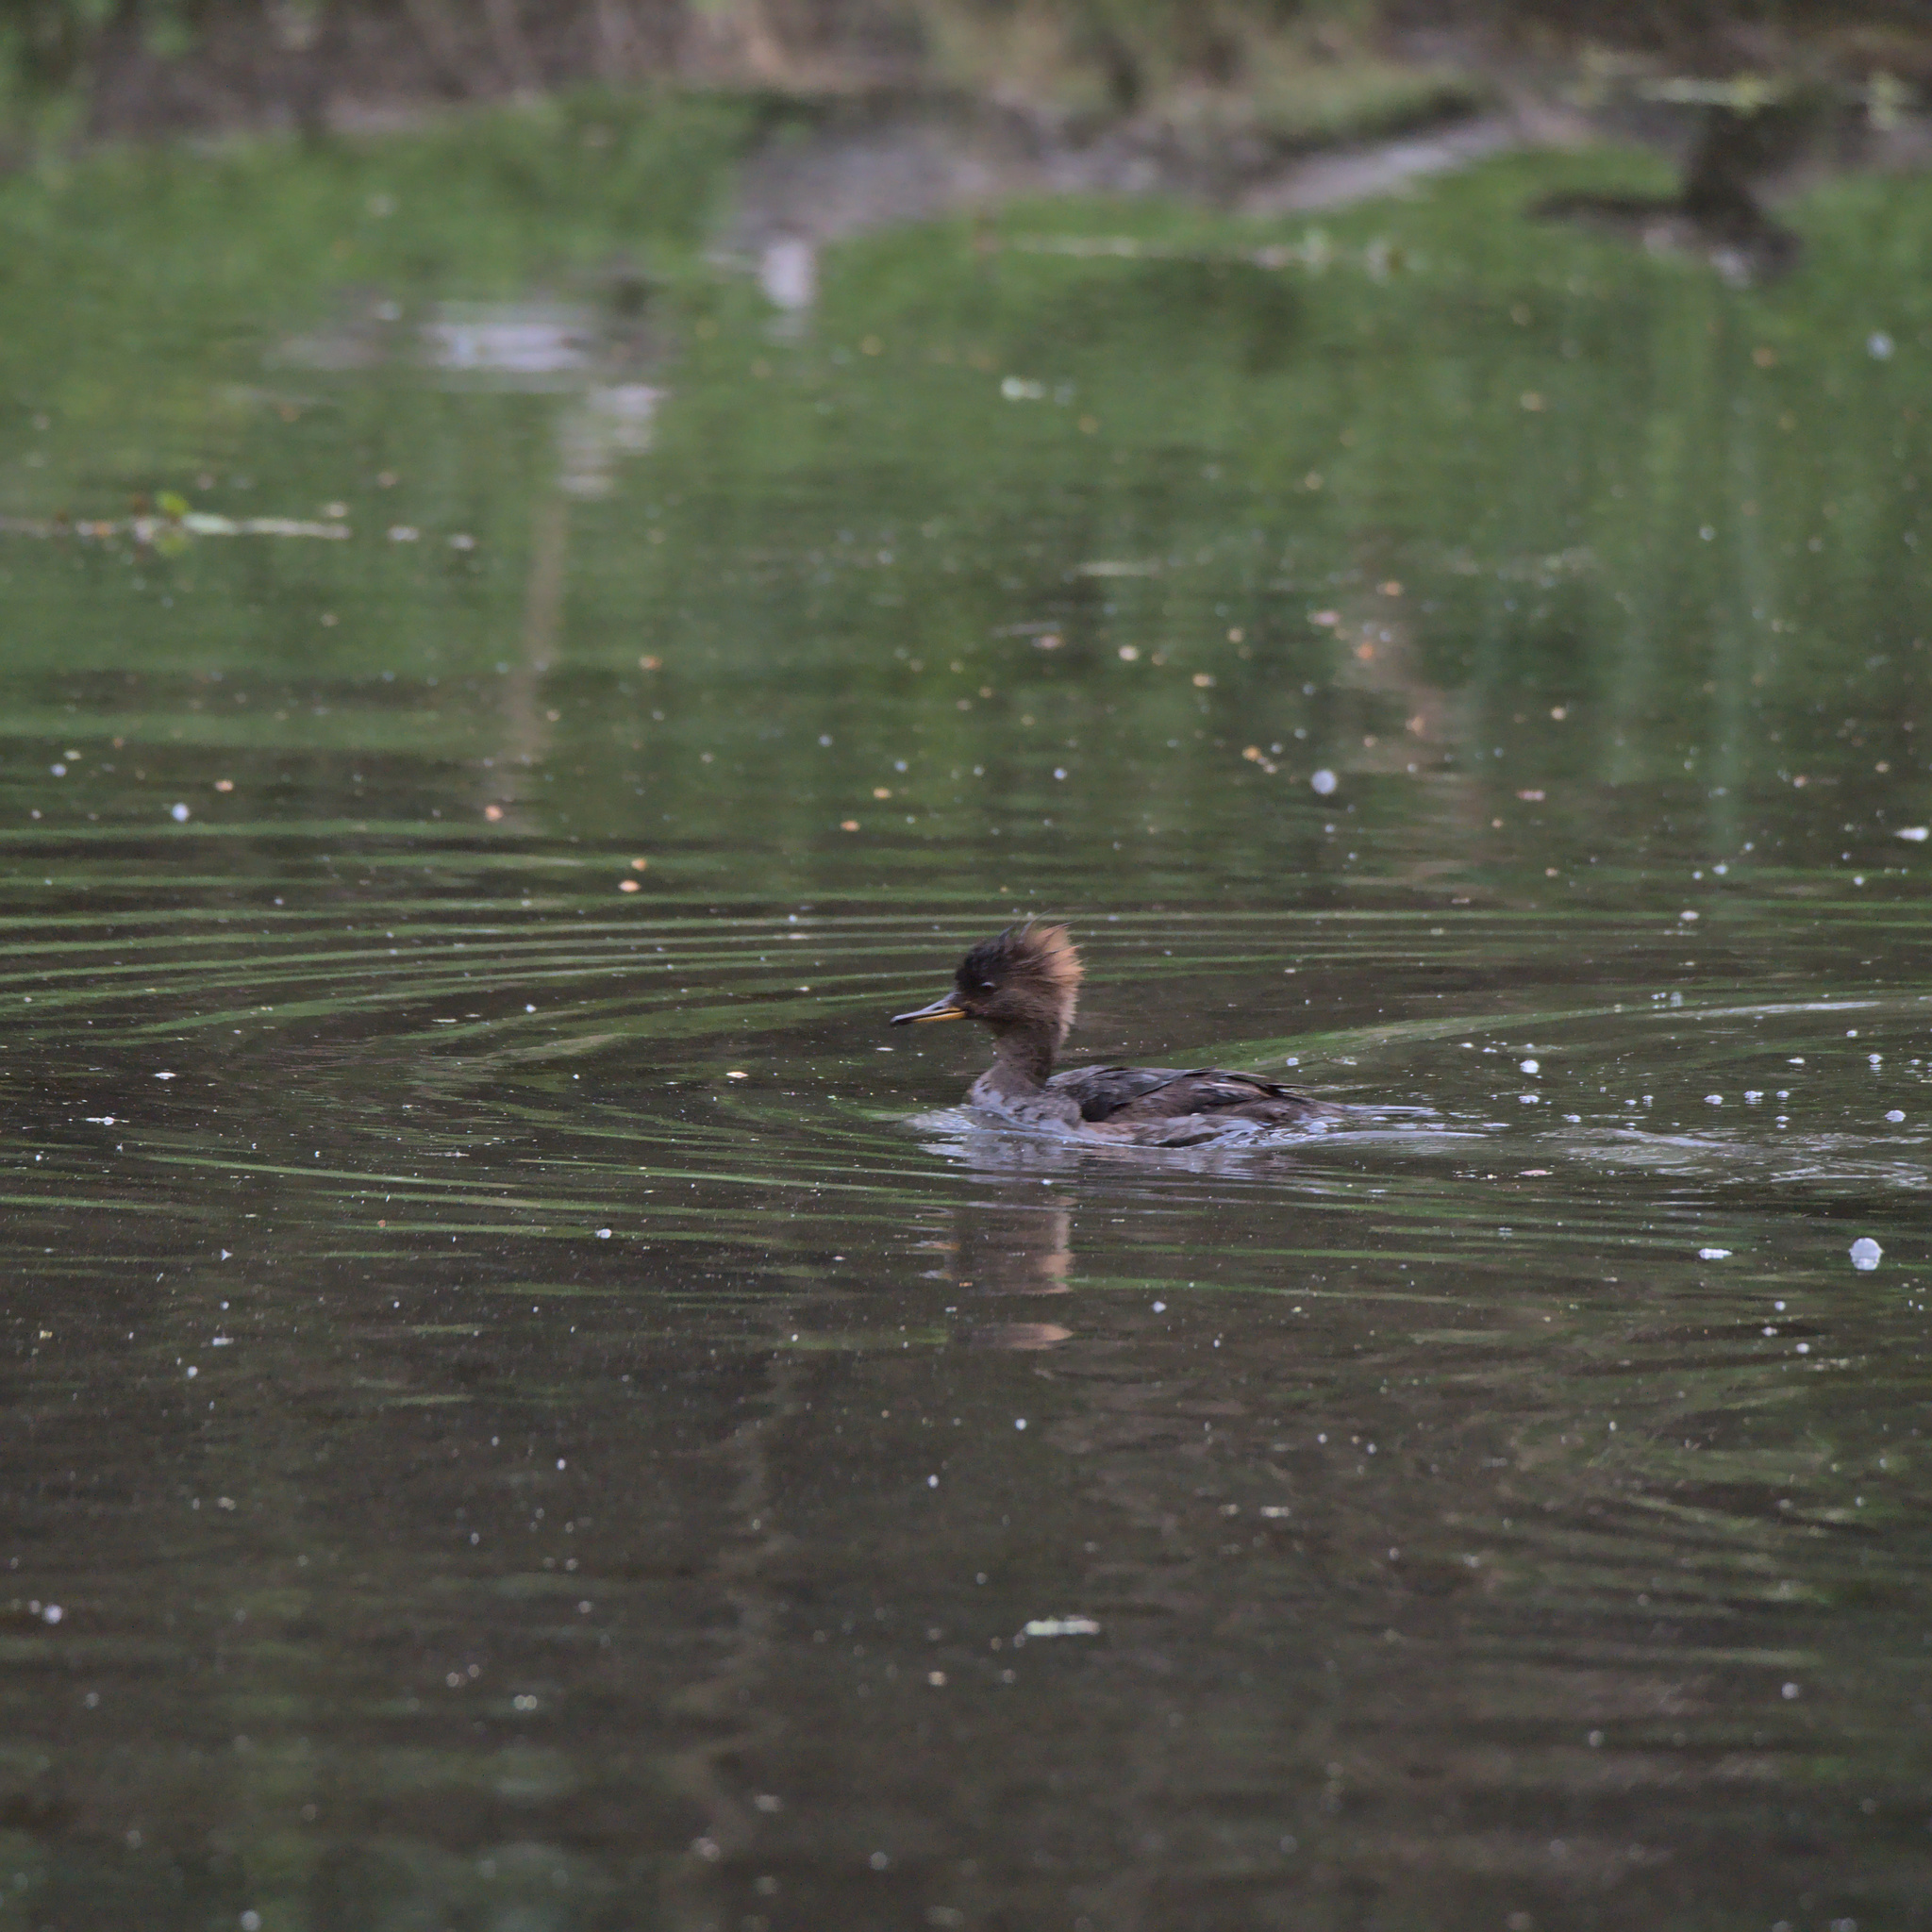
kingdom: Animalia
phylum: Chordata
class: Aves
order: Anseriformes
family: Anatidae
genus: Lophodytes
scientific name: Lophodytes cucullatus
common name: Hooded merganser
